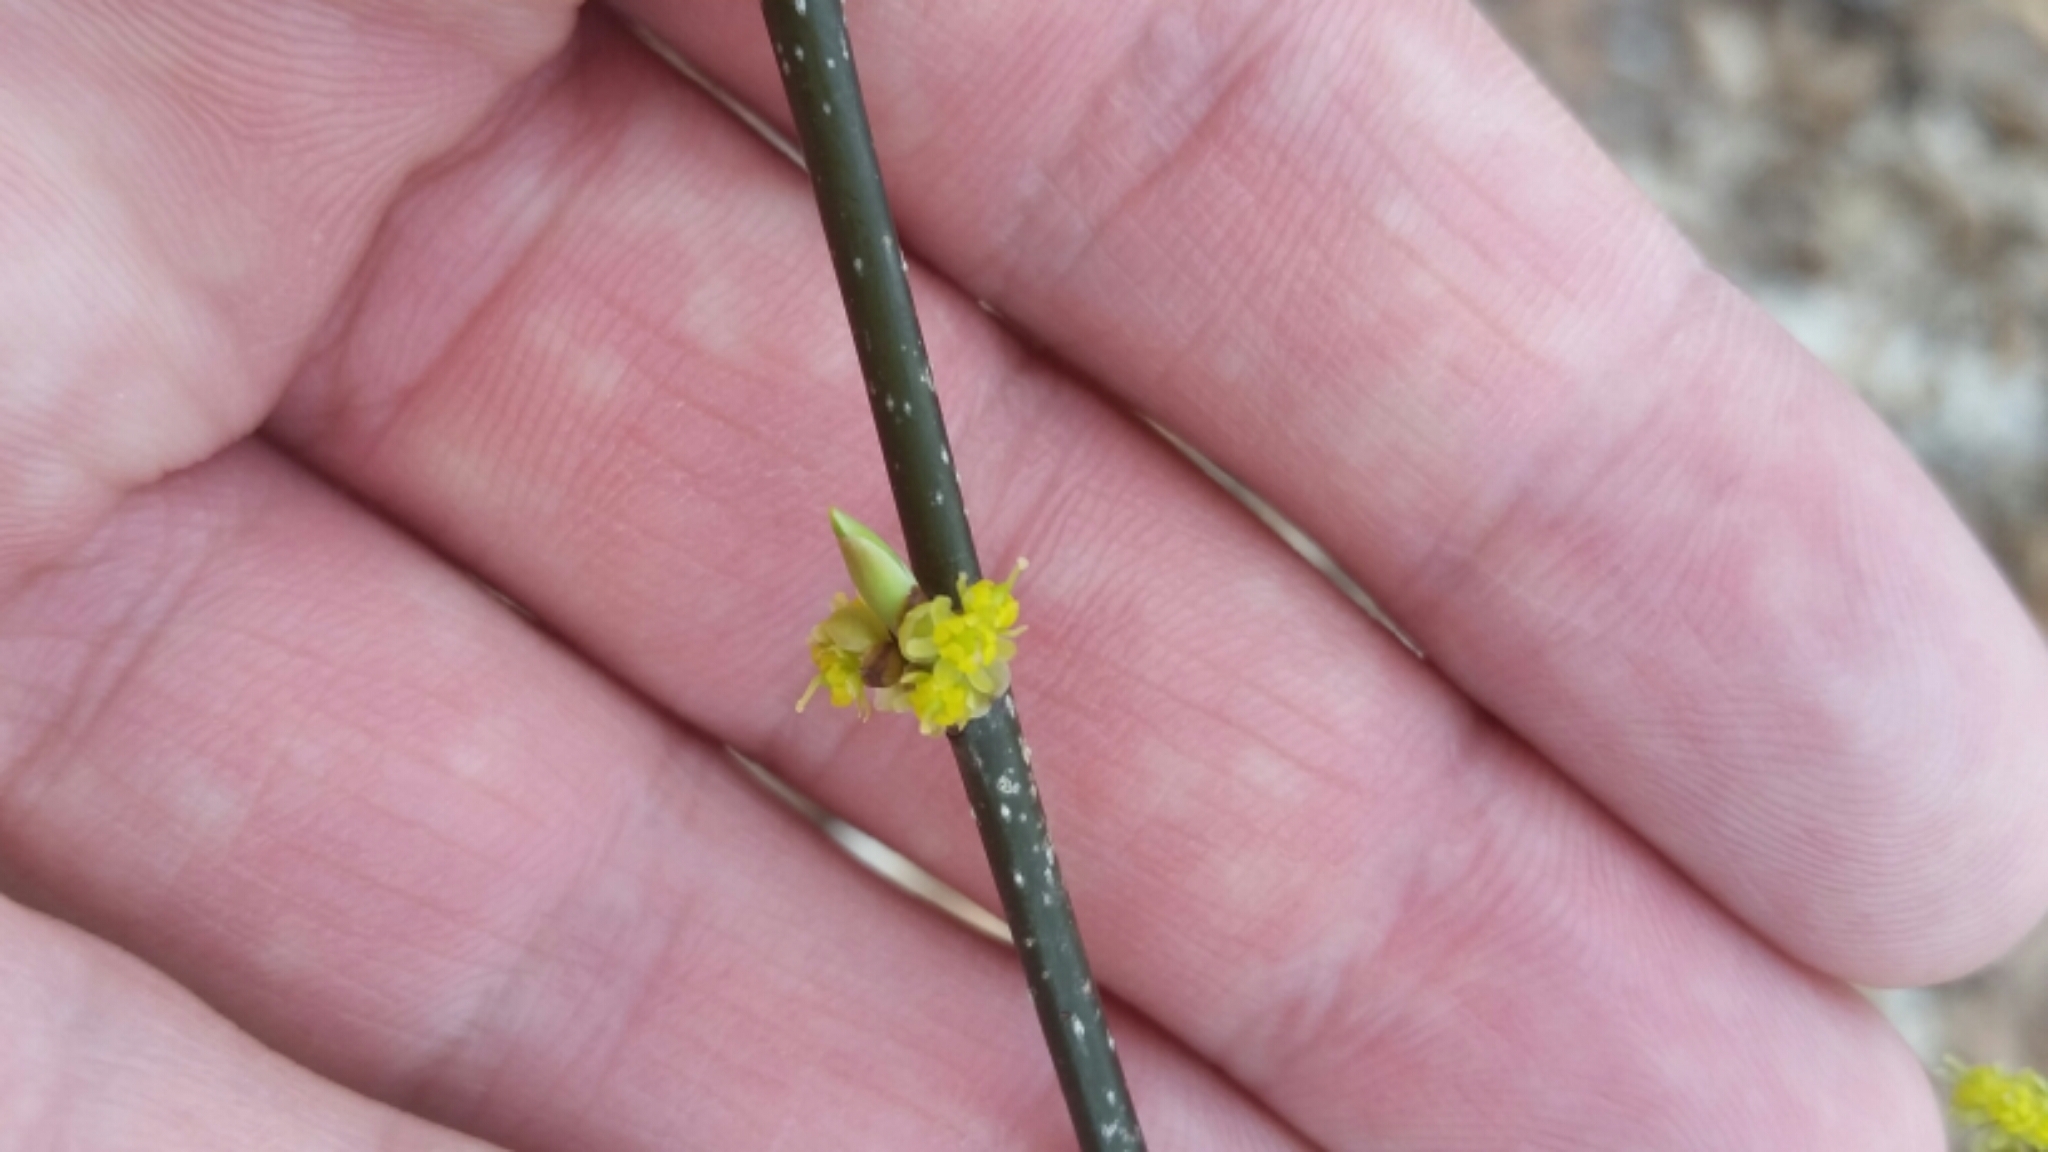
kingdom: Plantae
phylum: Tracheophyta
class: Magnoliopsida
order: Laurales
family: Lauraceae
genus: Lindera
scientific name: Lindera benzoin
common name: Spicebush
